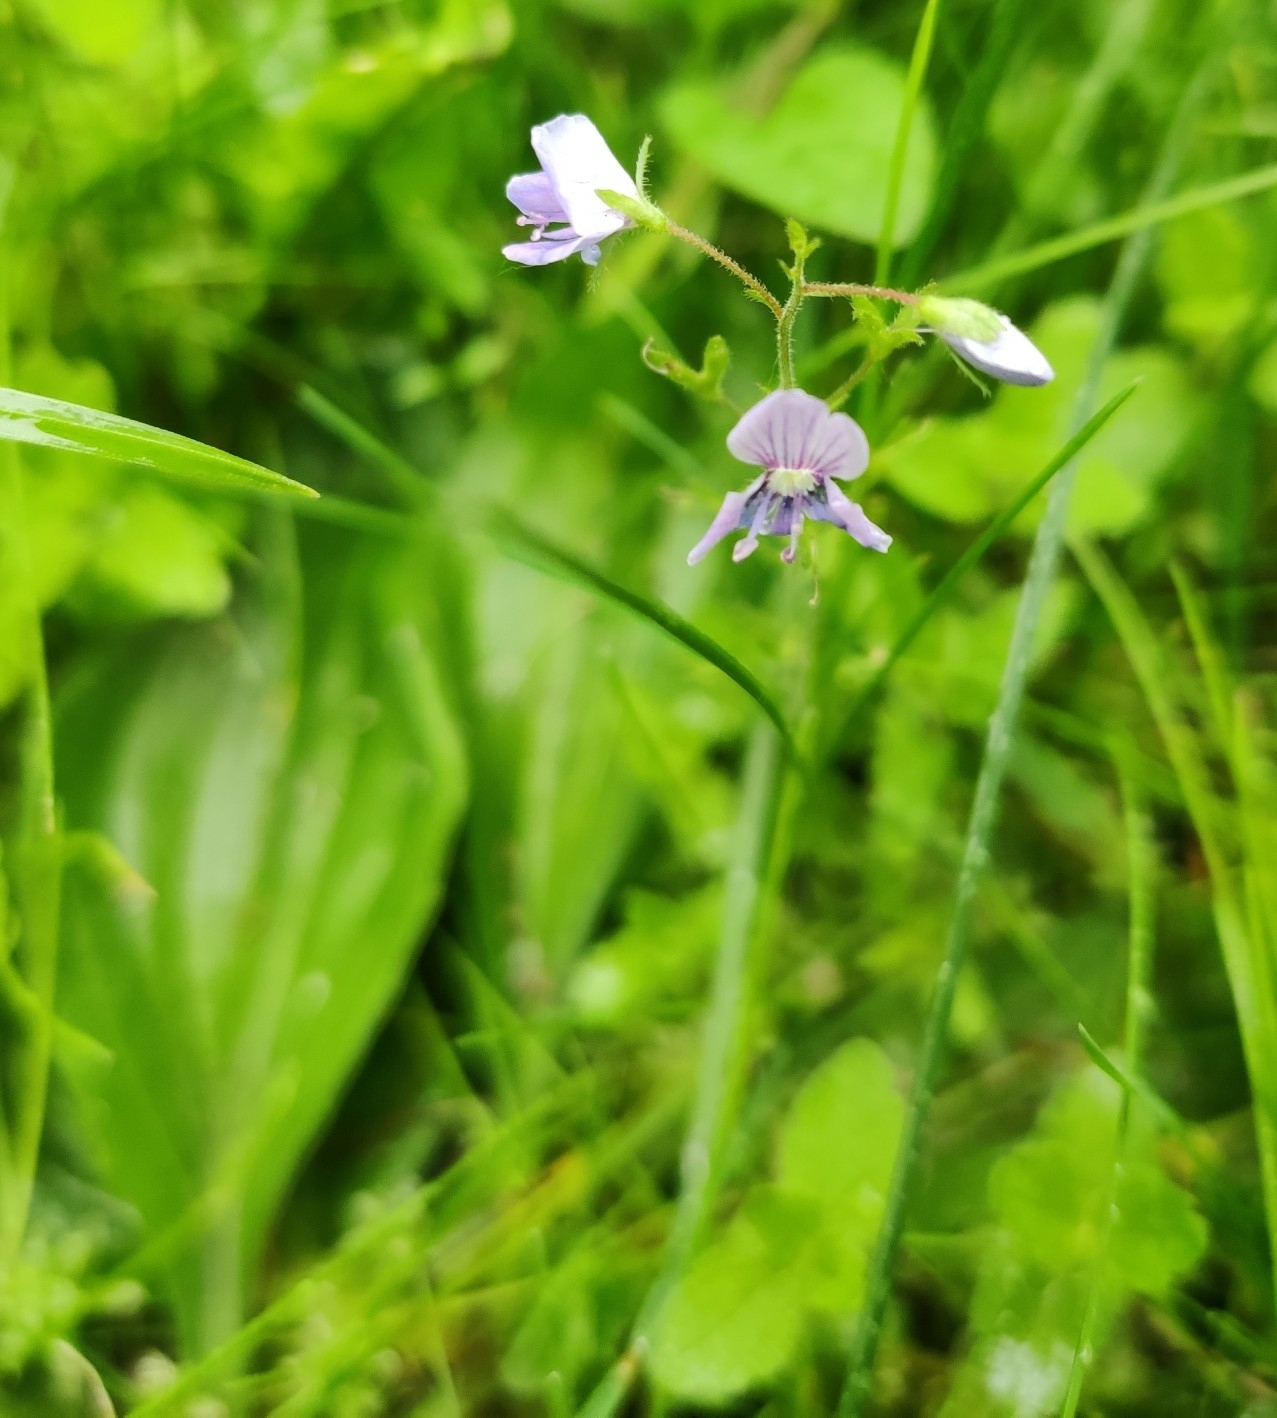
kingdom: Plantae
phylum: Tracheophyta
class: Magnoliopsida
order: Lamiales
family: Plantaginaceae
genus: Veronica
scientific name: Veronica chamaedrys
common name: Germander speedwell
